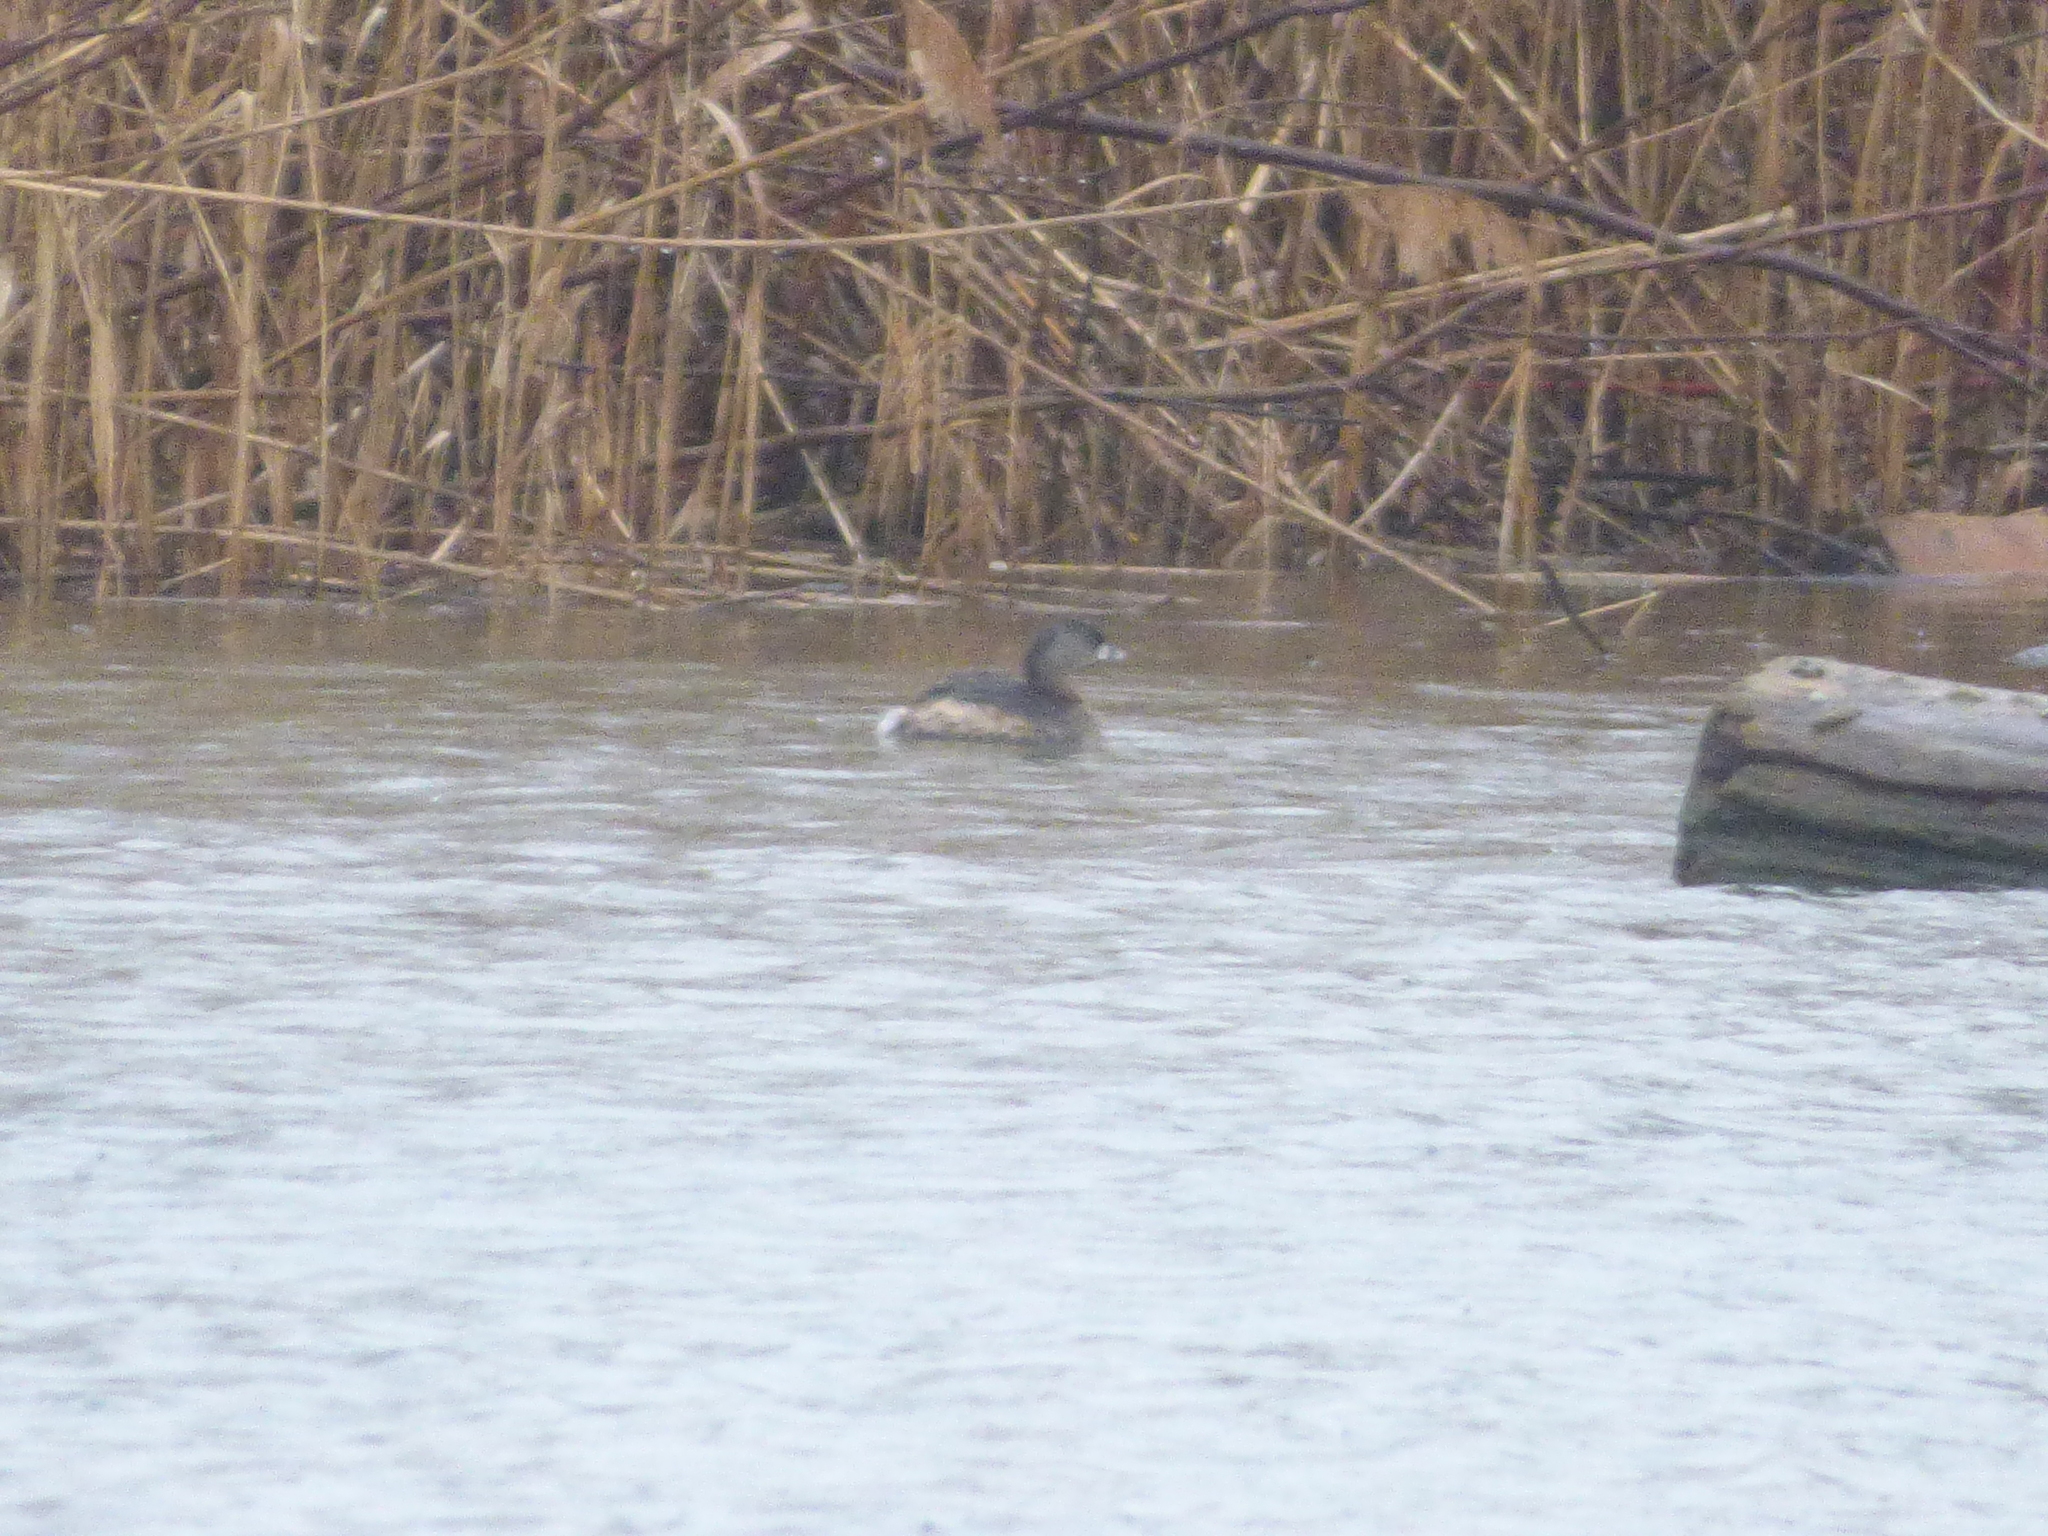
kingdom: Animalia
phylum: Chordata
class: Aves
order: Podicipediformes
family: Podicipedidae
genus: Podilymbus
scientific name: Podilymbus podiceps
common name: Pied-billed grebe
